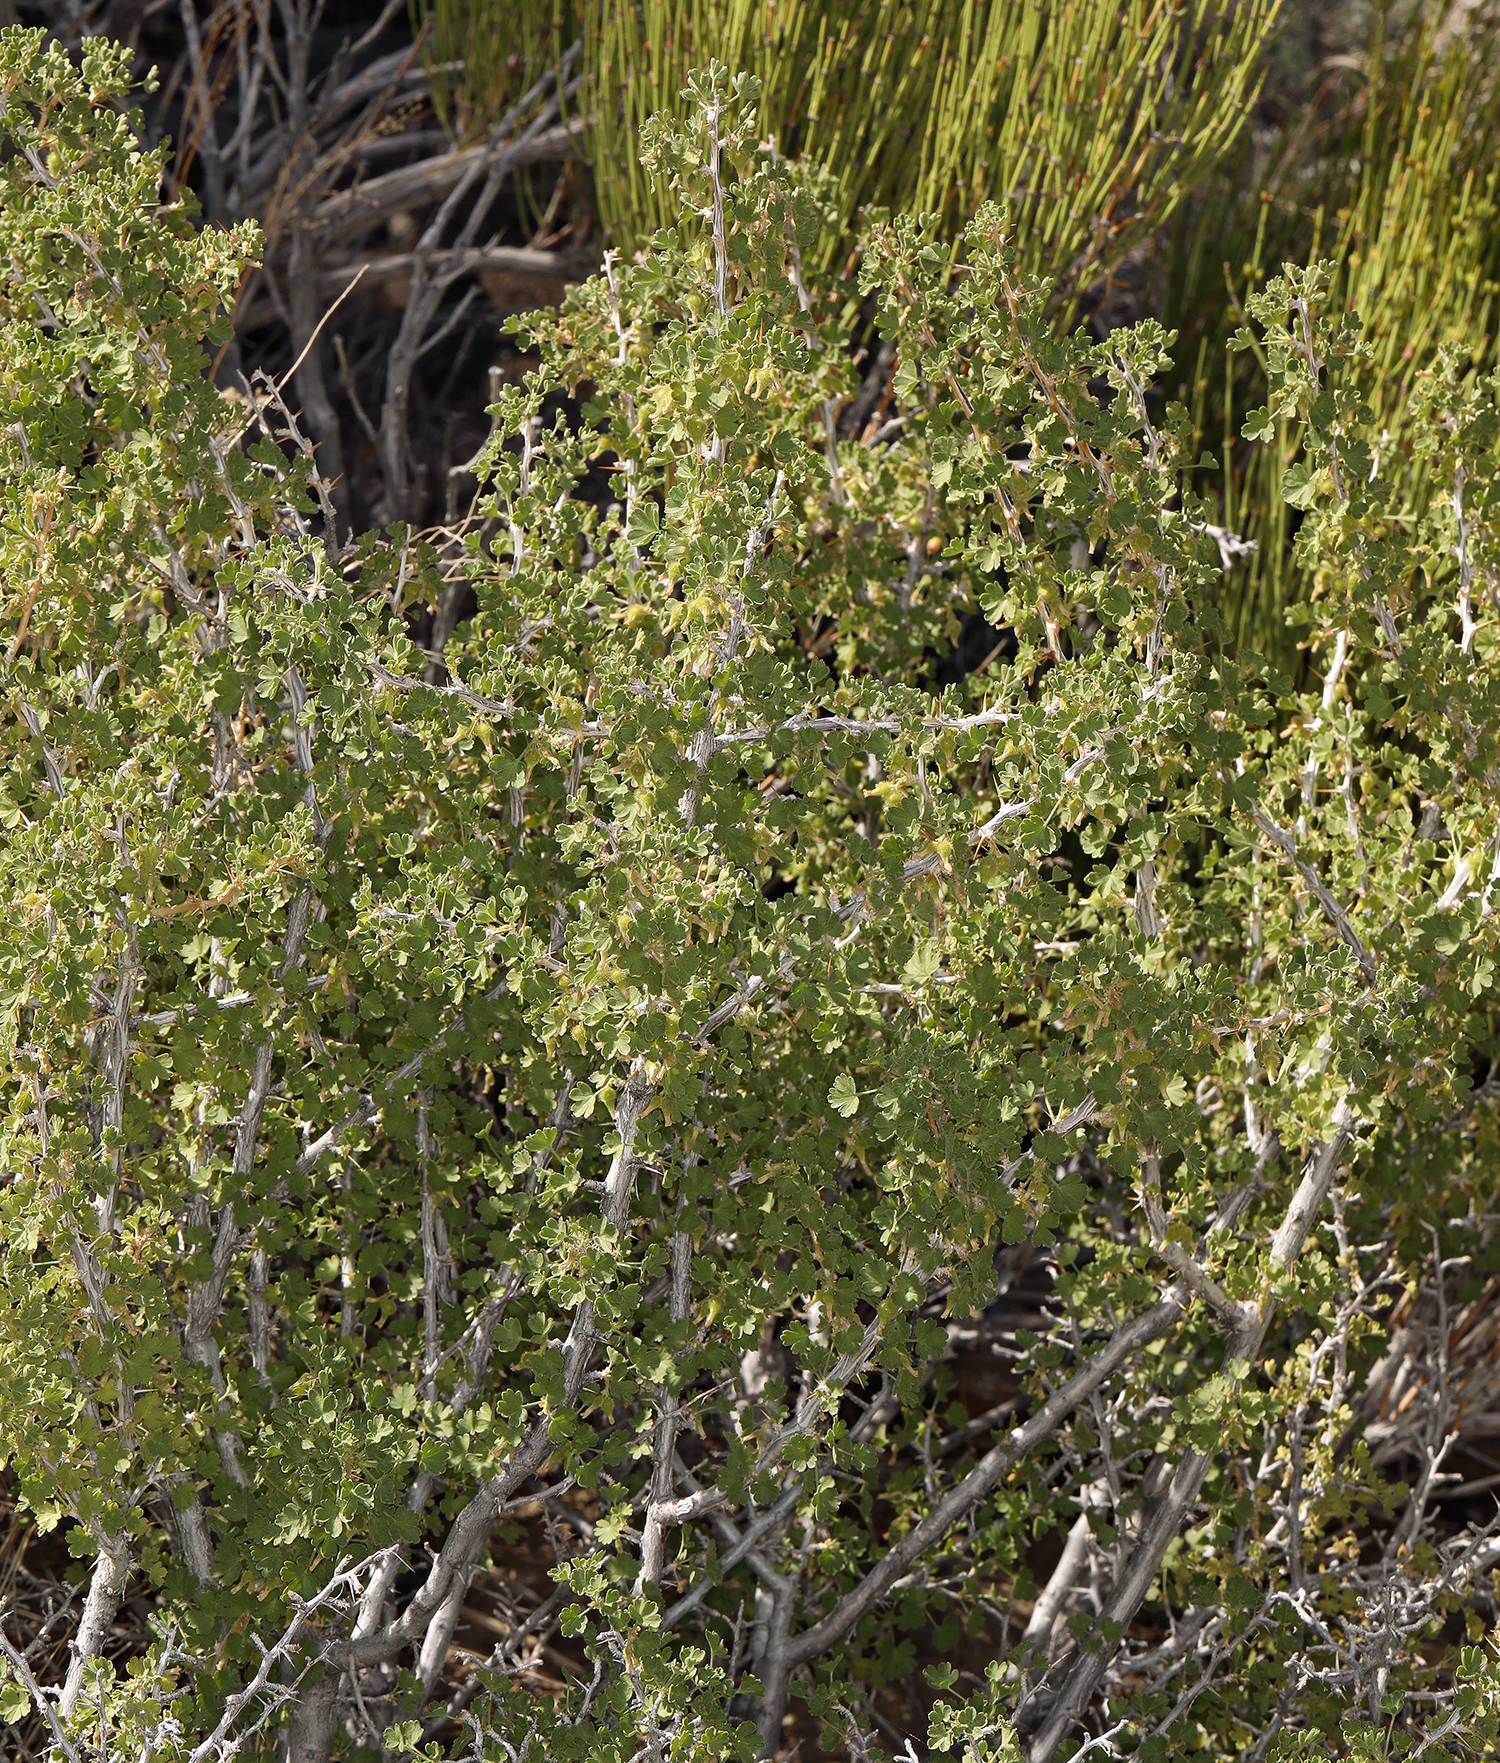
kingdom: Plantae
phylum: Tracheophyta
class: Magnoliopsida
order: Saxifragales
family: Grossulariaceae
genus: Ribes
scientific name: Ribes velutinum
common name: Desert gooseberry
